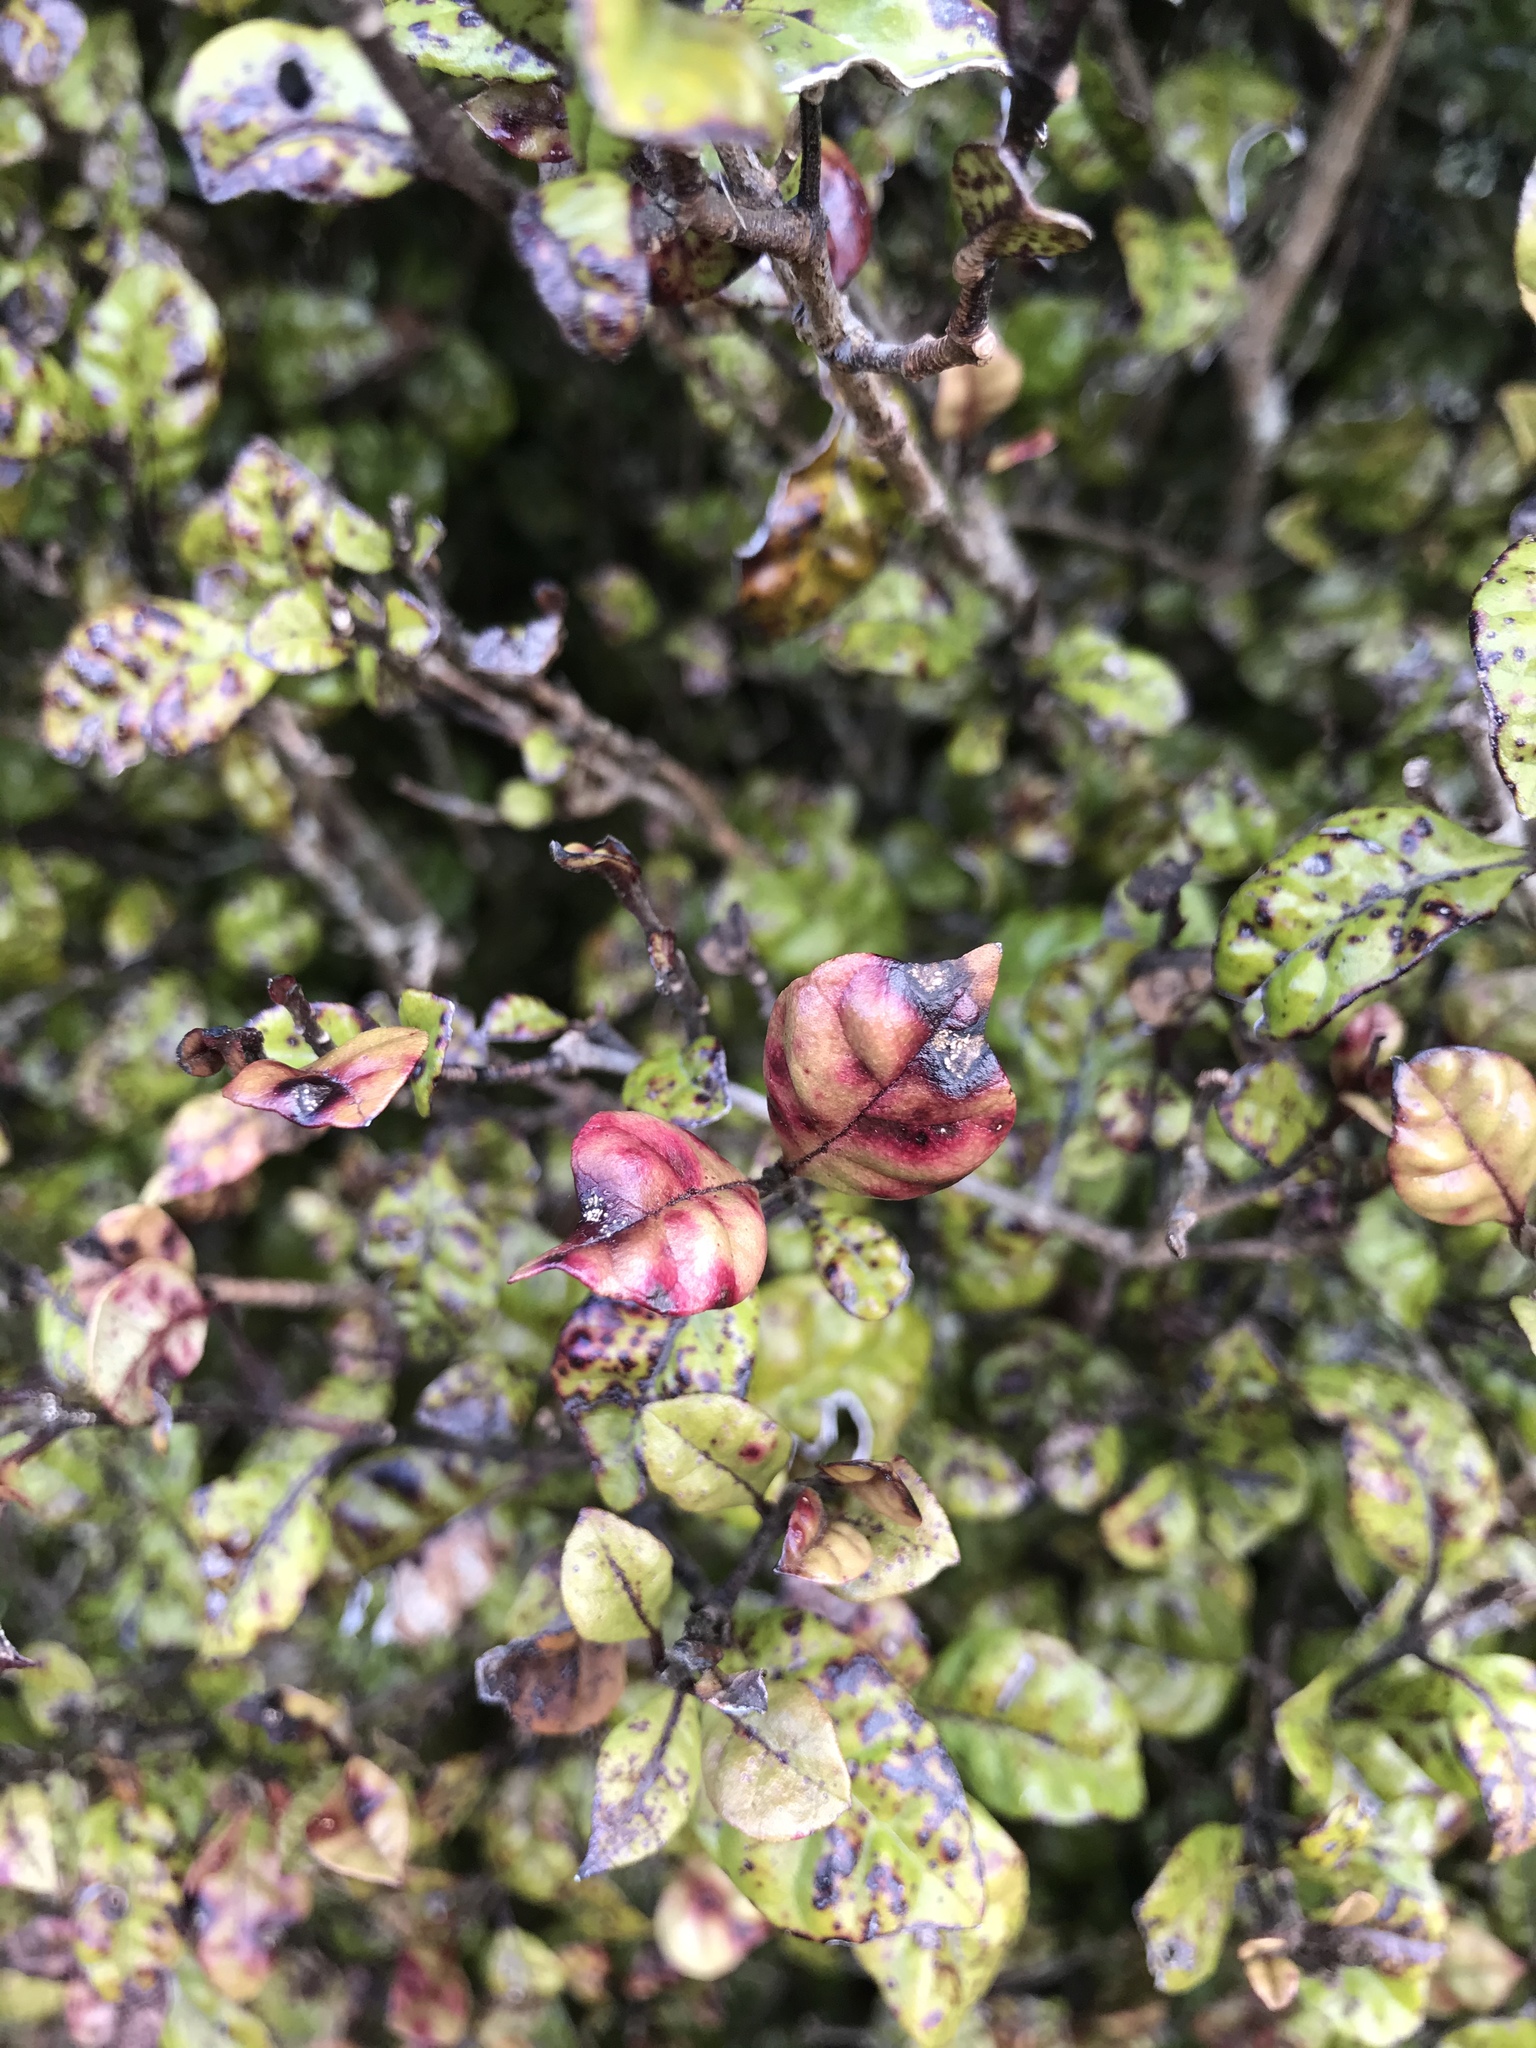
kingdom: Fungi
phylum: Basidiomycota
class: Pucciniomycetes
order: Pucciniales
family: Sphaerophragmiaceae
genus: Austropuccinia
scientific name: Austropuccinia psidii
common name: Myrtle rust
